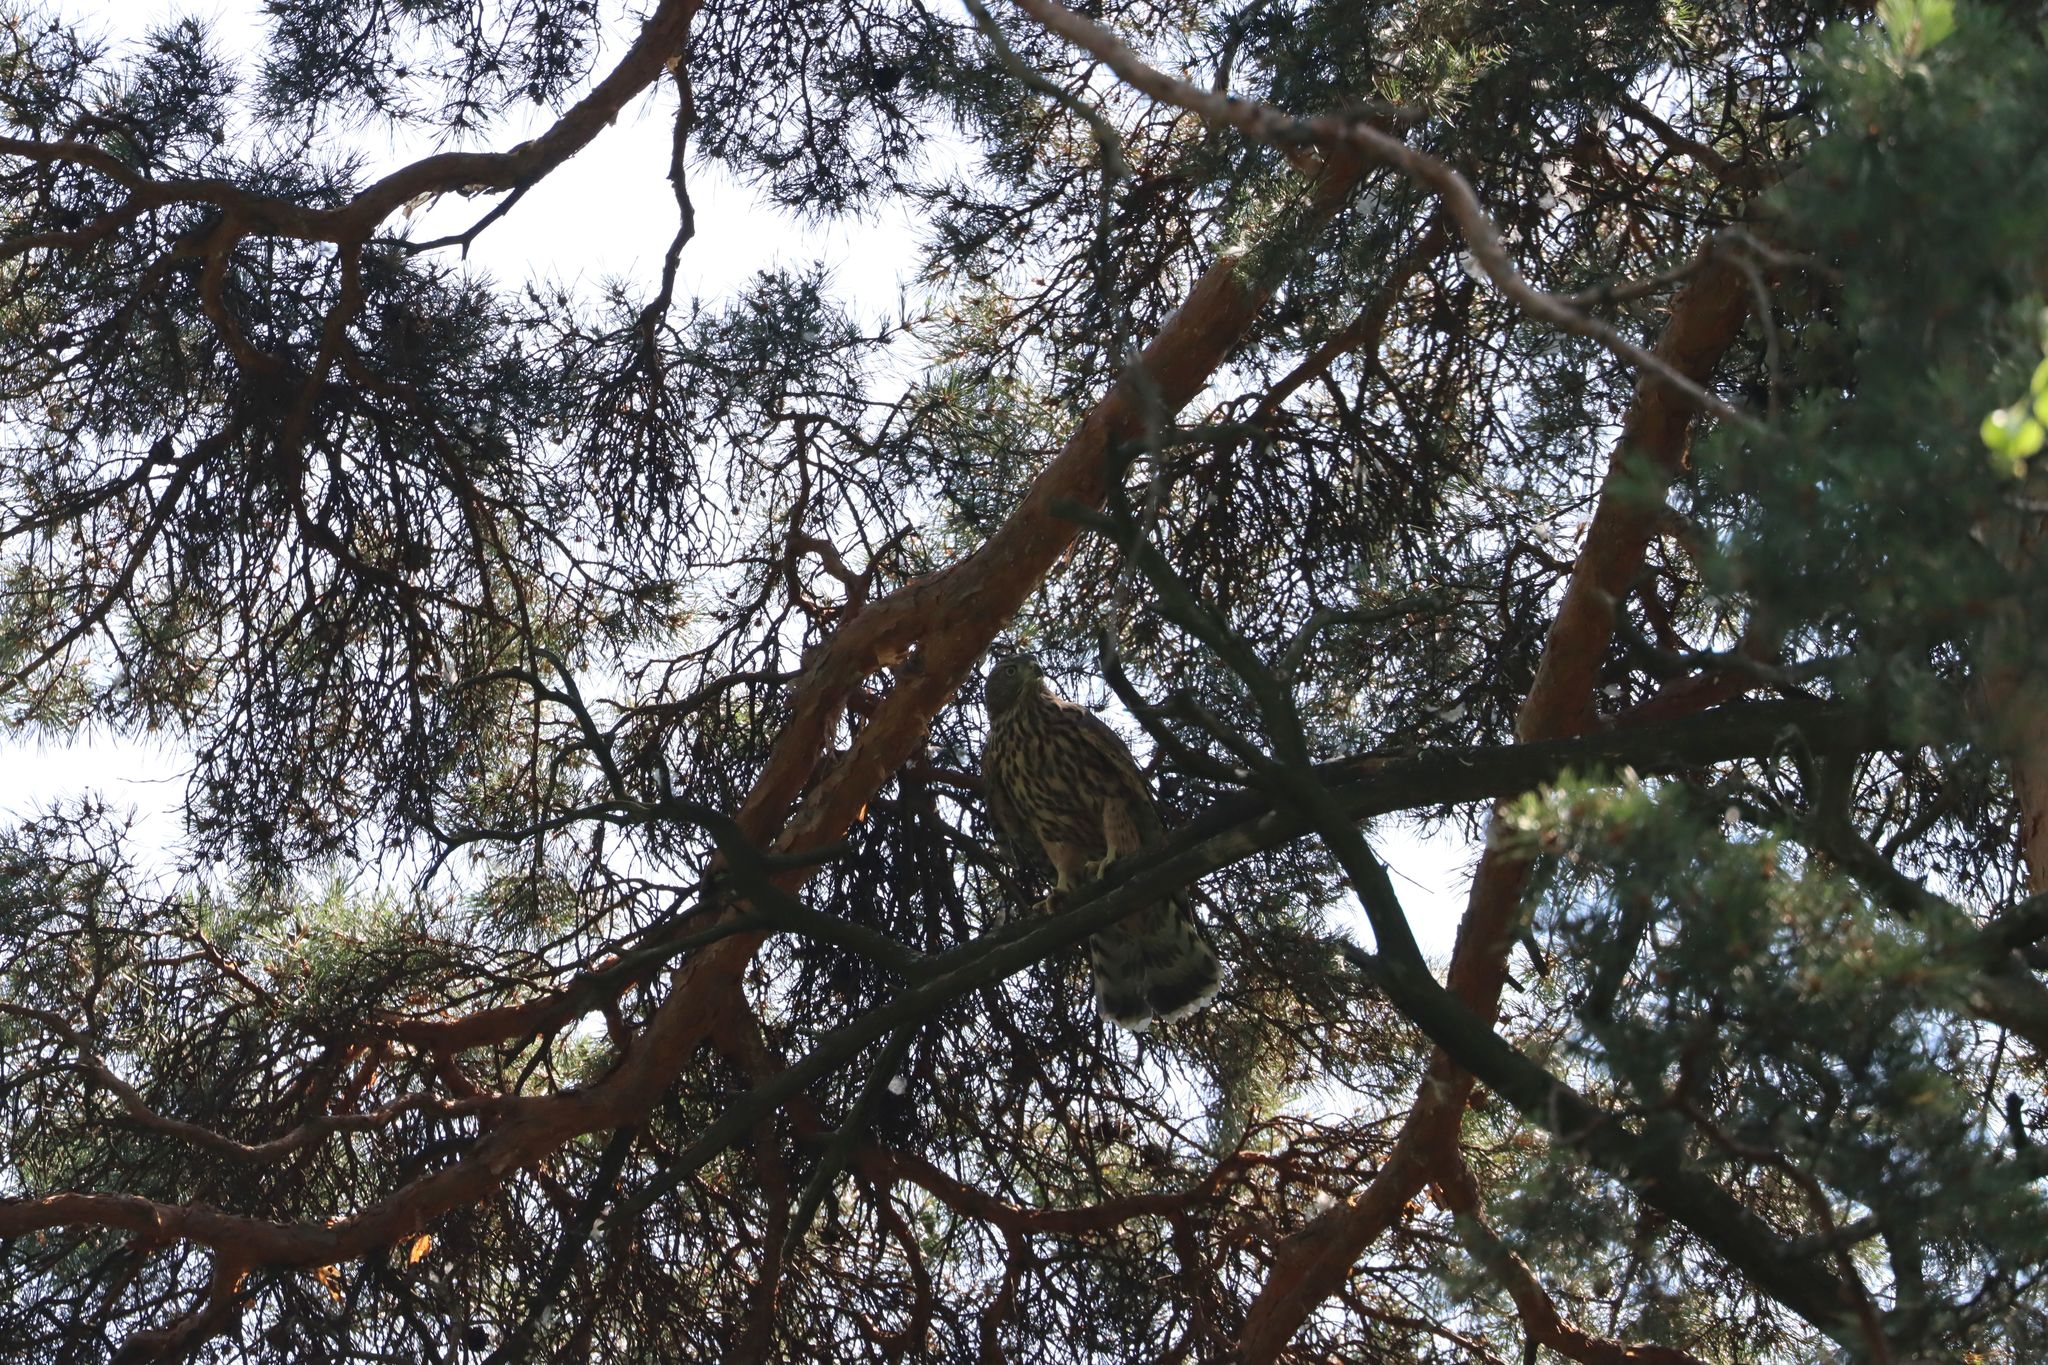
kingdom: Animalia
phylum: Chordata
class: Aves
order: Accipitriformes
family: Accipitridae
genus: Accipiter
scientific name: Accipiter gentilis
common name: Northern goshawk
